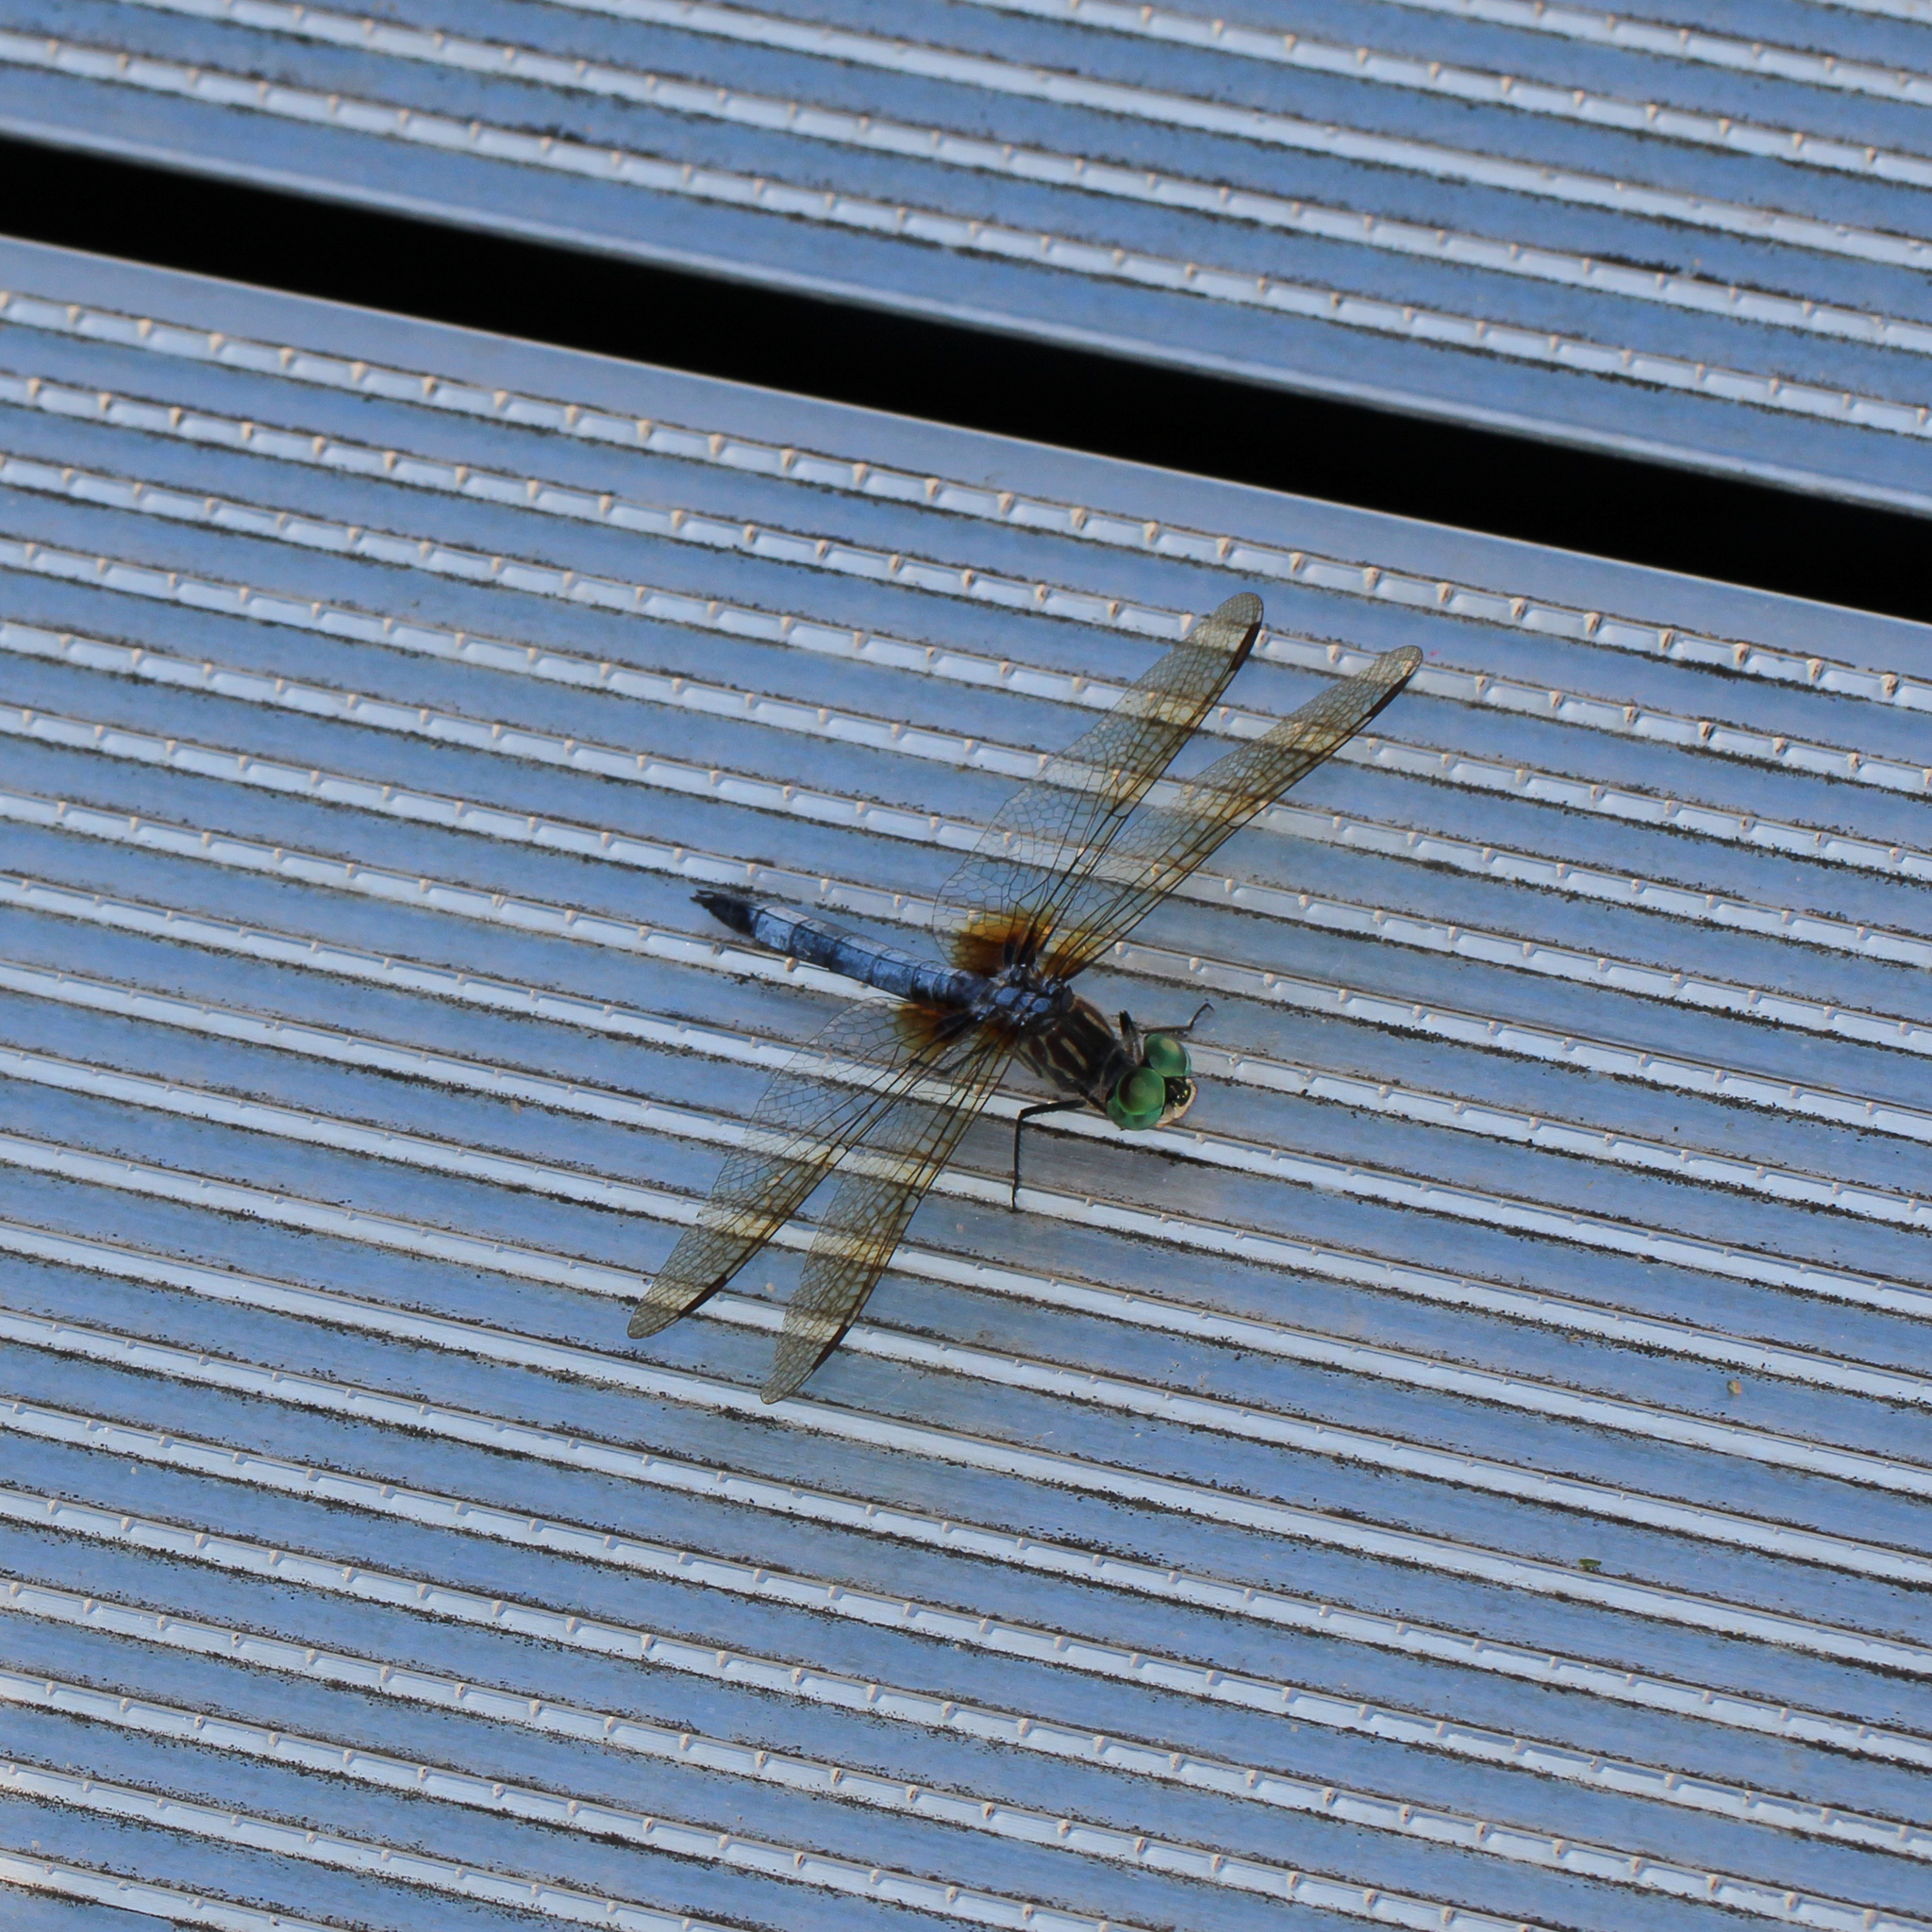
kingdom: Animalia
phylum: Arthropoda
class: Insecta
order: Odonata
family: Libellulidae
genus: Pachydiplax
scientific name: Pachydiplax longipennis
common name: Blue dasher
